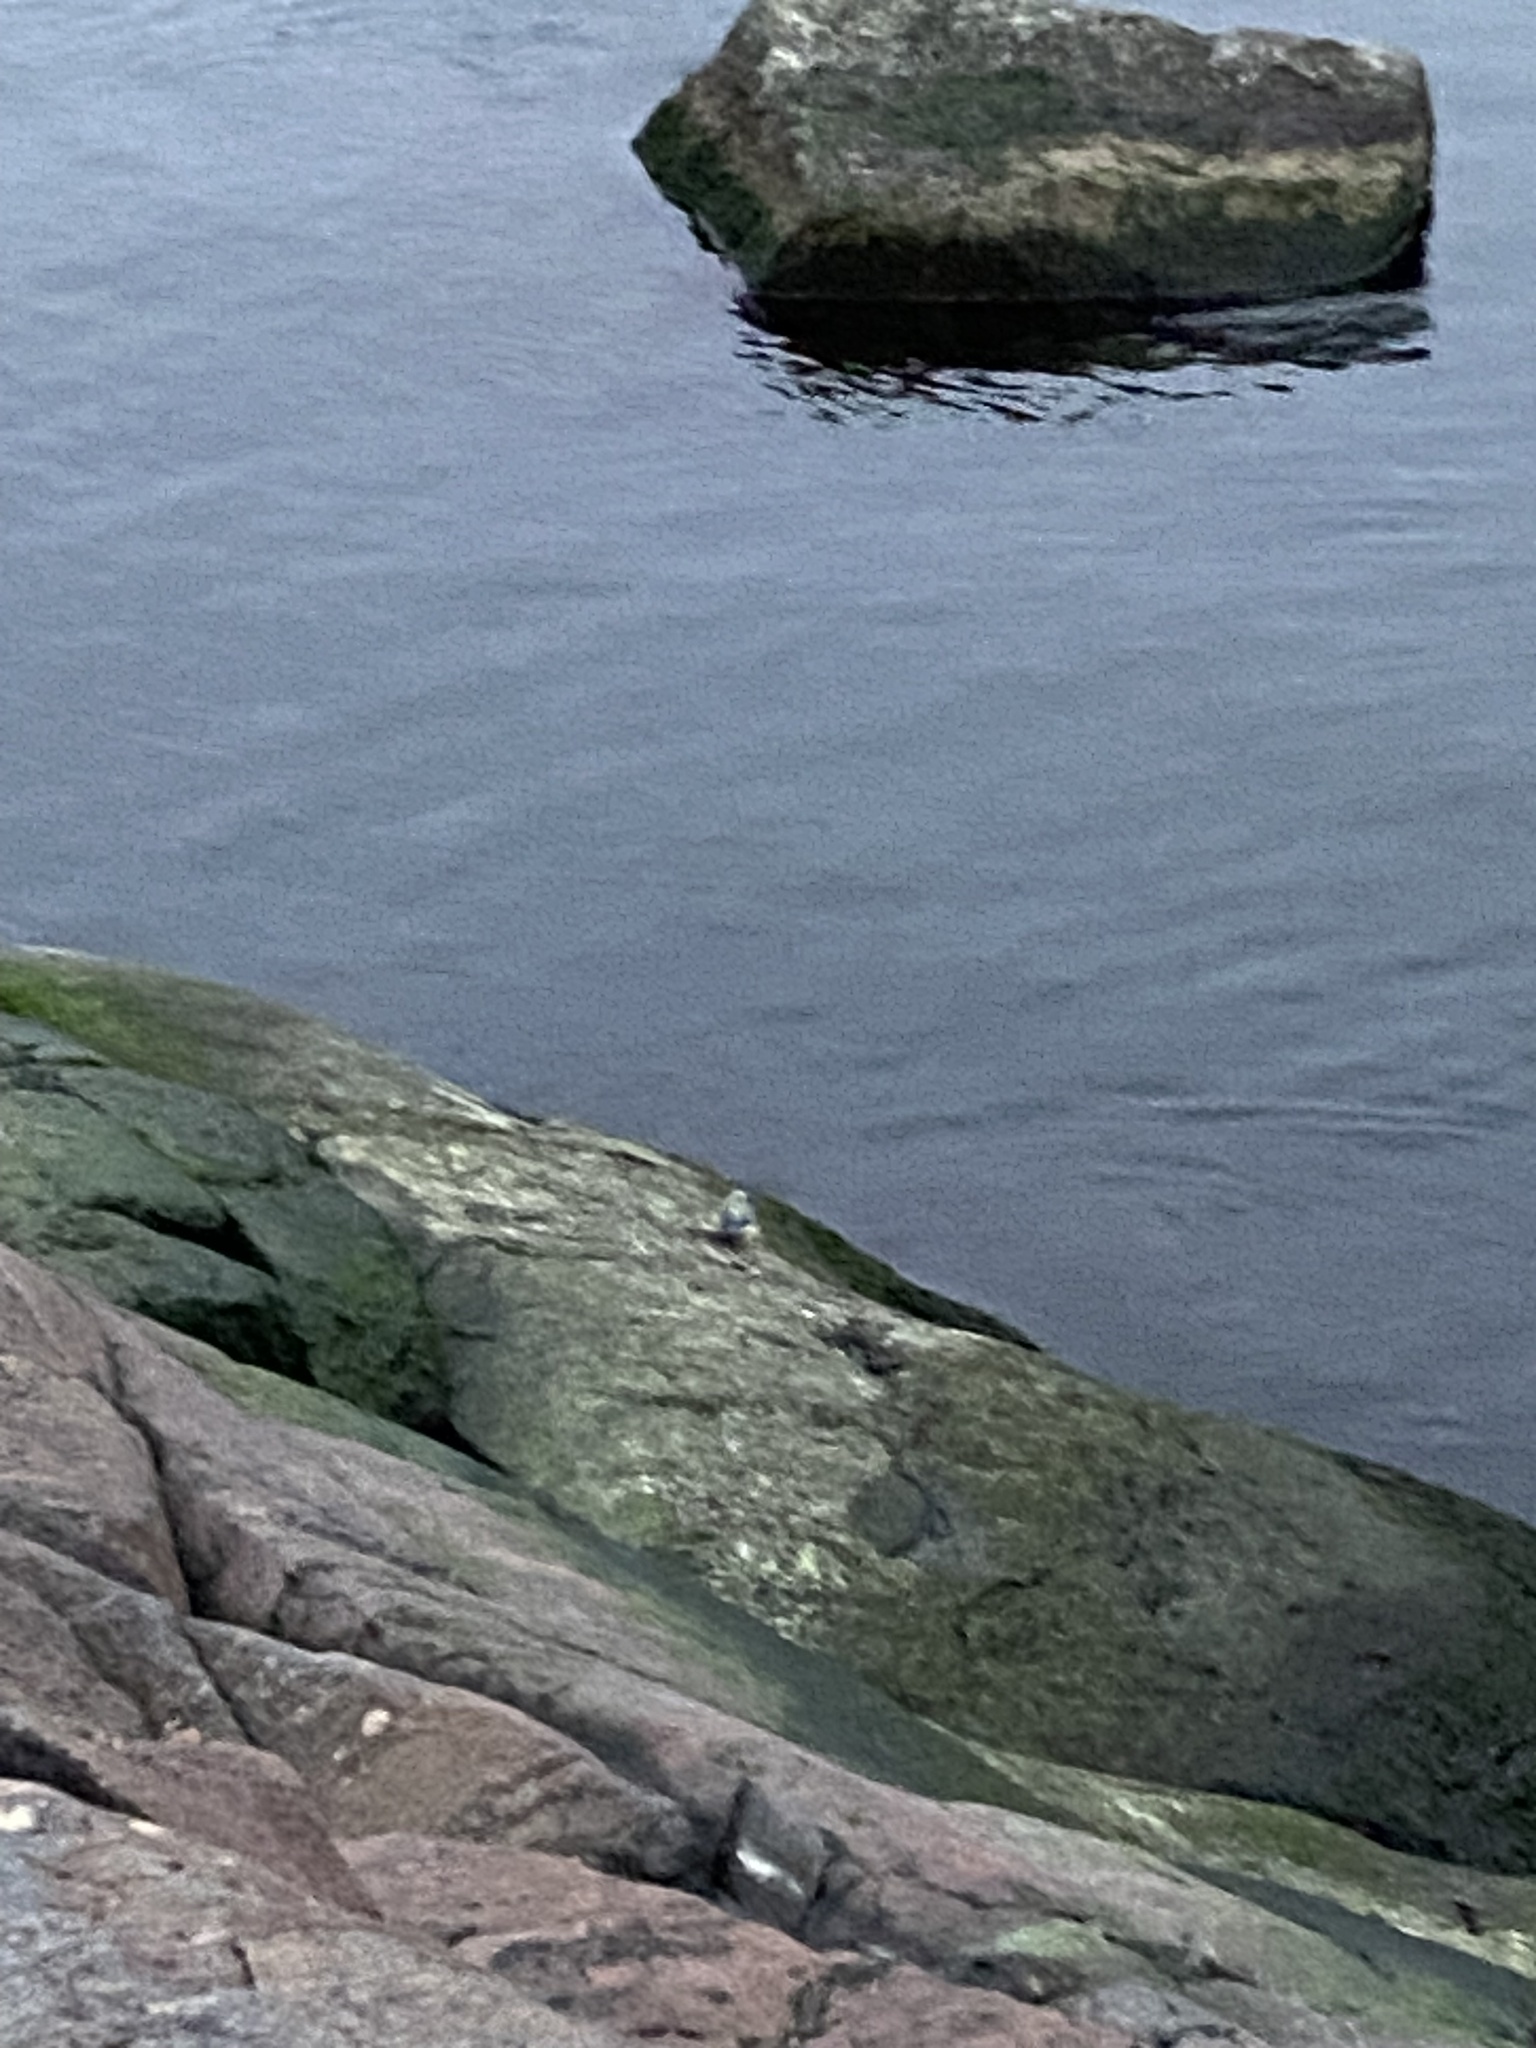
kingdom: Animalia
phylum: Chordata
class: Aves
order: Passeriformes
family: Paridae
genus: Cyanistes
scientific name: Cyanistes caeruleus
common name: Eurasian blue tit
